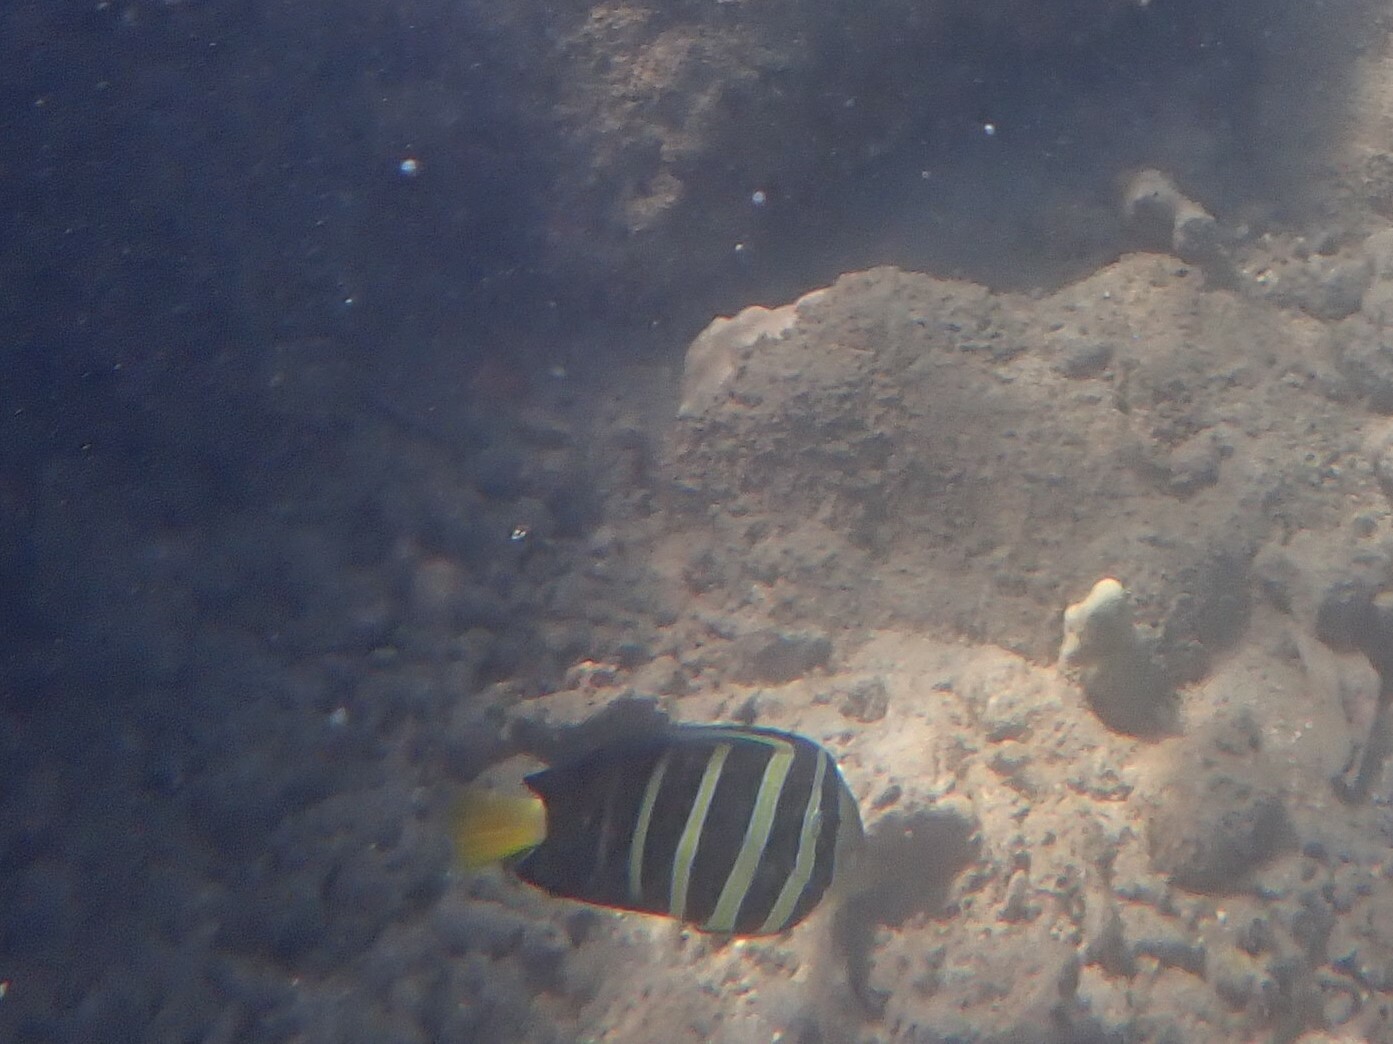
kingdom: Animalia
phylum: Chordata
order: Perciformes
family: Acanthuridae
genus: Zebrasoma
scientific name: Zebrasoma veliferum
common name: Sailfin surgeonfish
